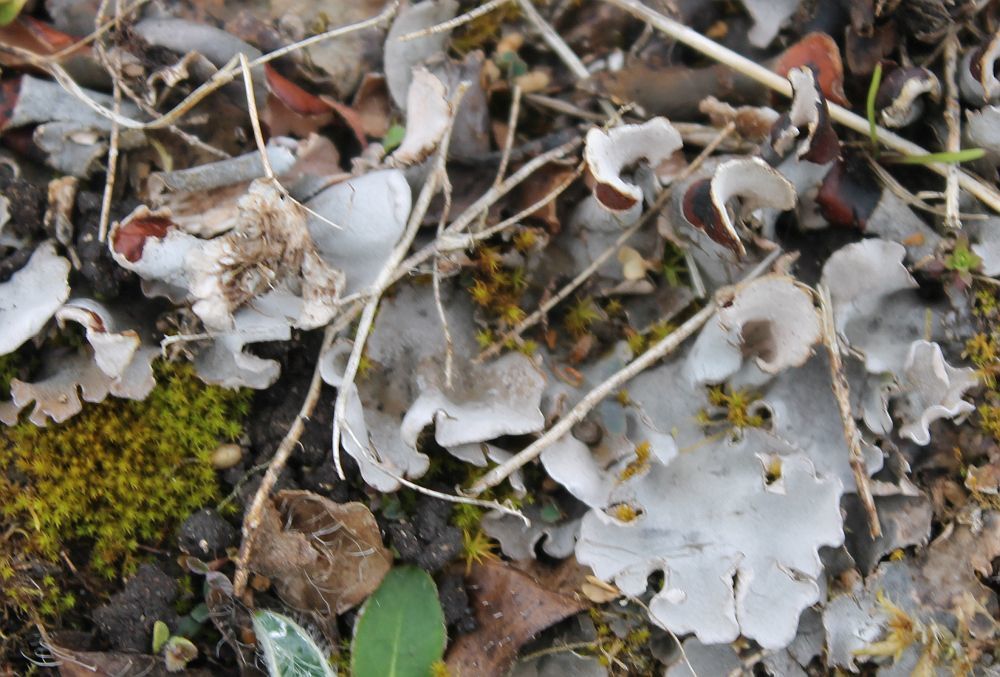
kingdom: Fungi
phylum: Ascomycota
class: Lecanoromycetes
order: Peltigerales
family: Peltigeraceae
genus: Peltigera
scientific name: Peltigera
